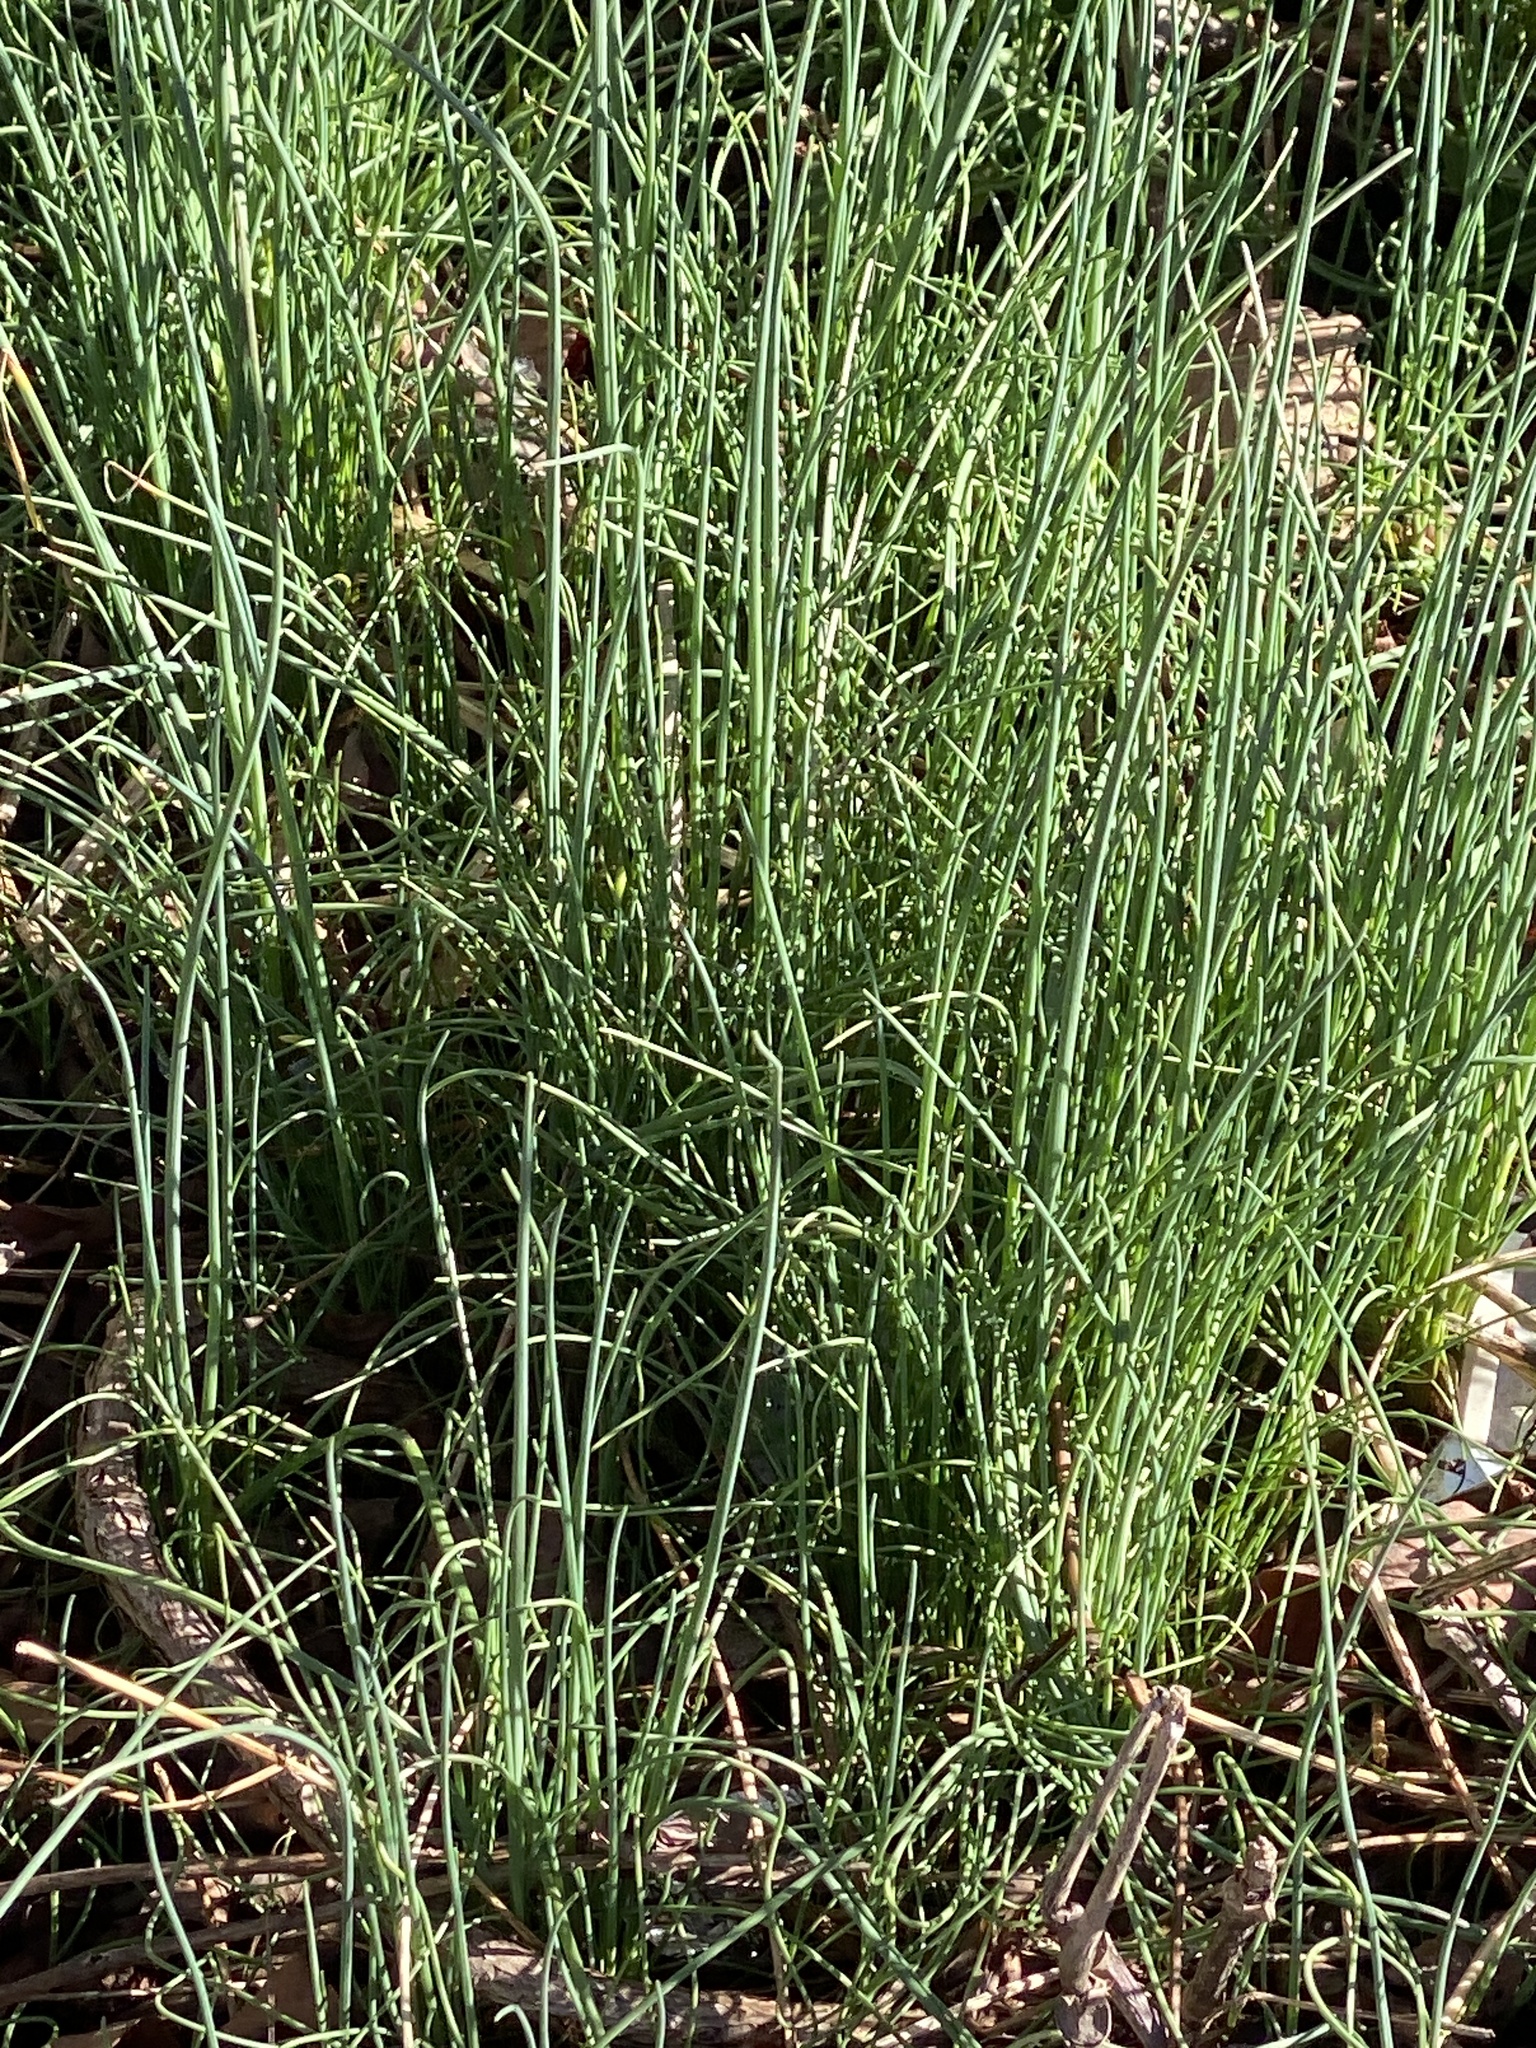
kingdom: Plantae
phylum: Tracheophyta
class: Liliopsida
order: Asparagales
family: Amaryllidaceae
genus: Allium
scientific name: Allium vineale
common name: Crow garlic
